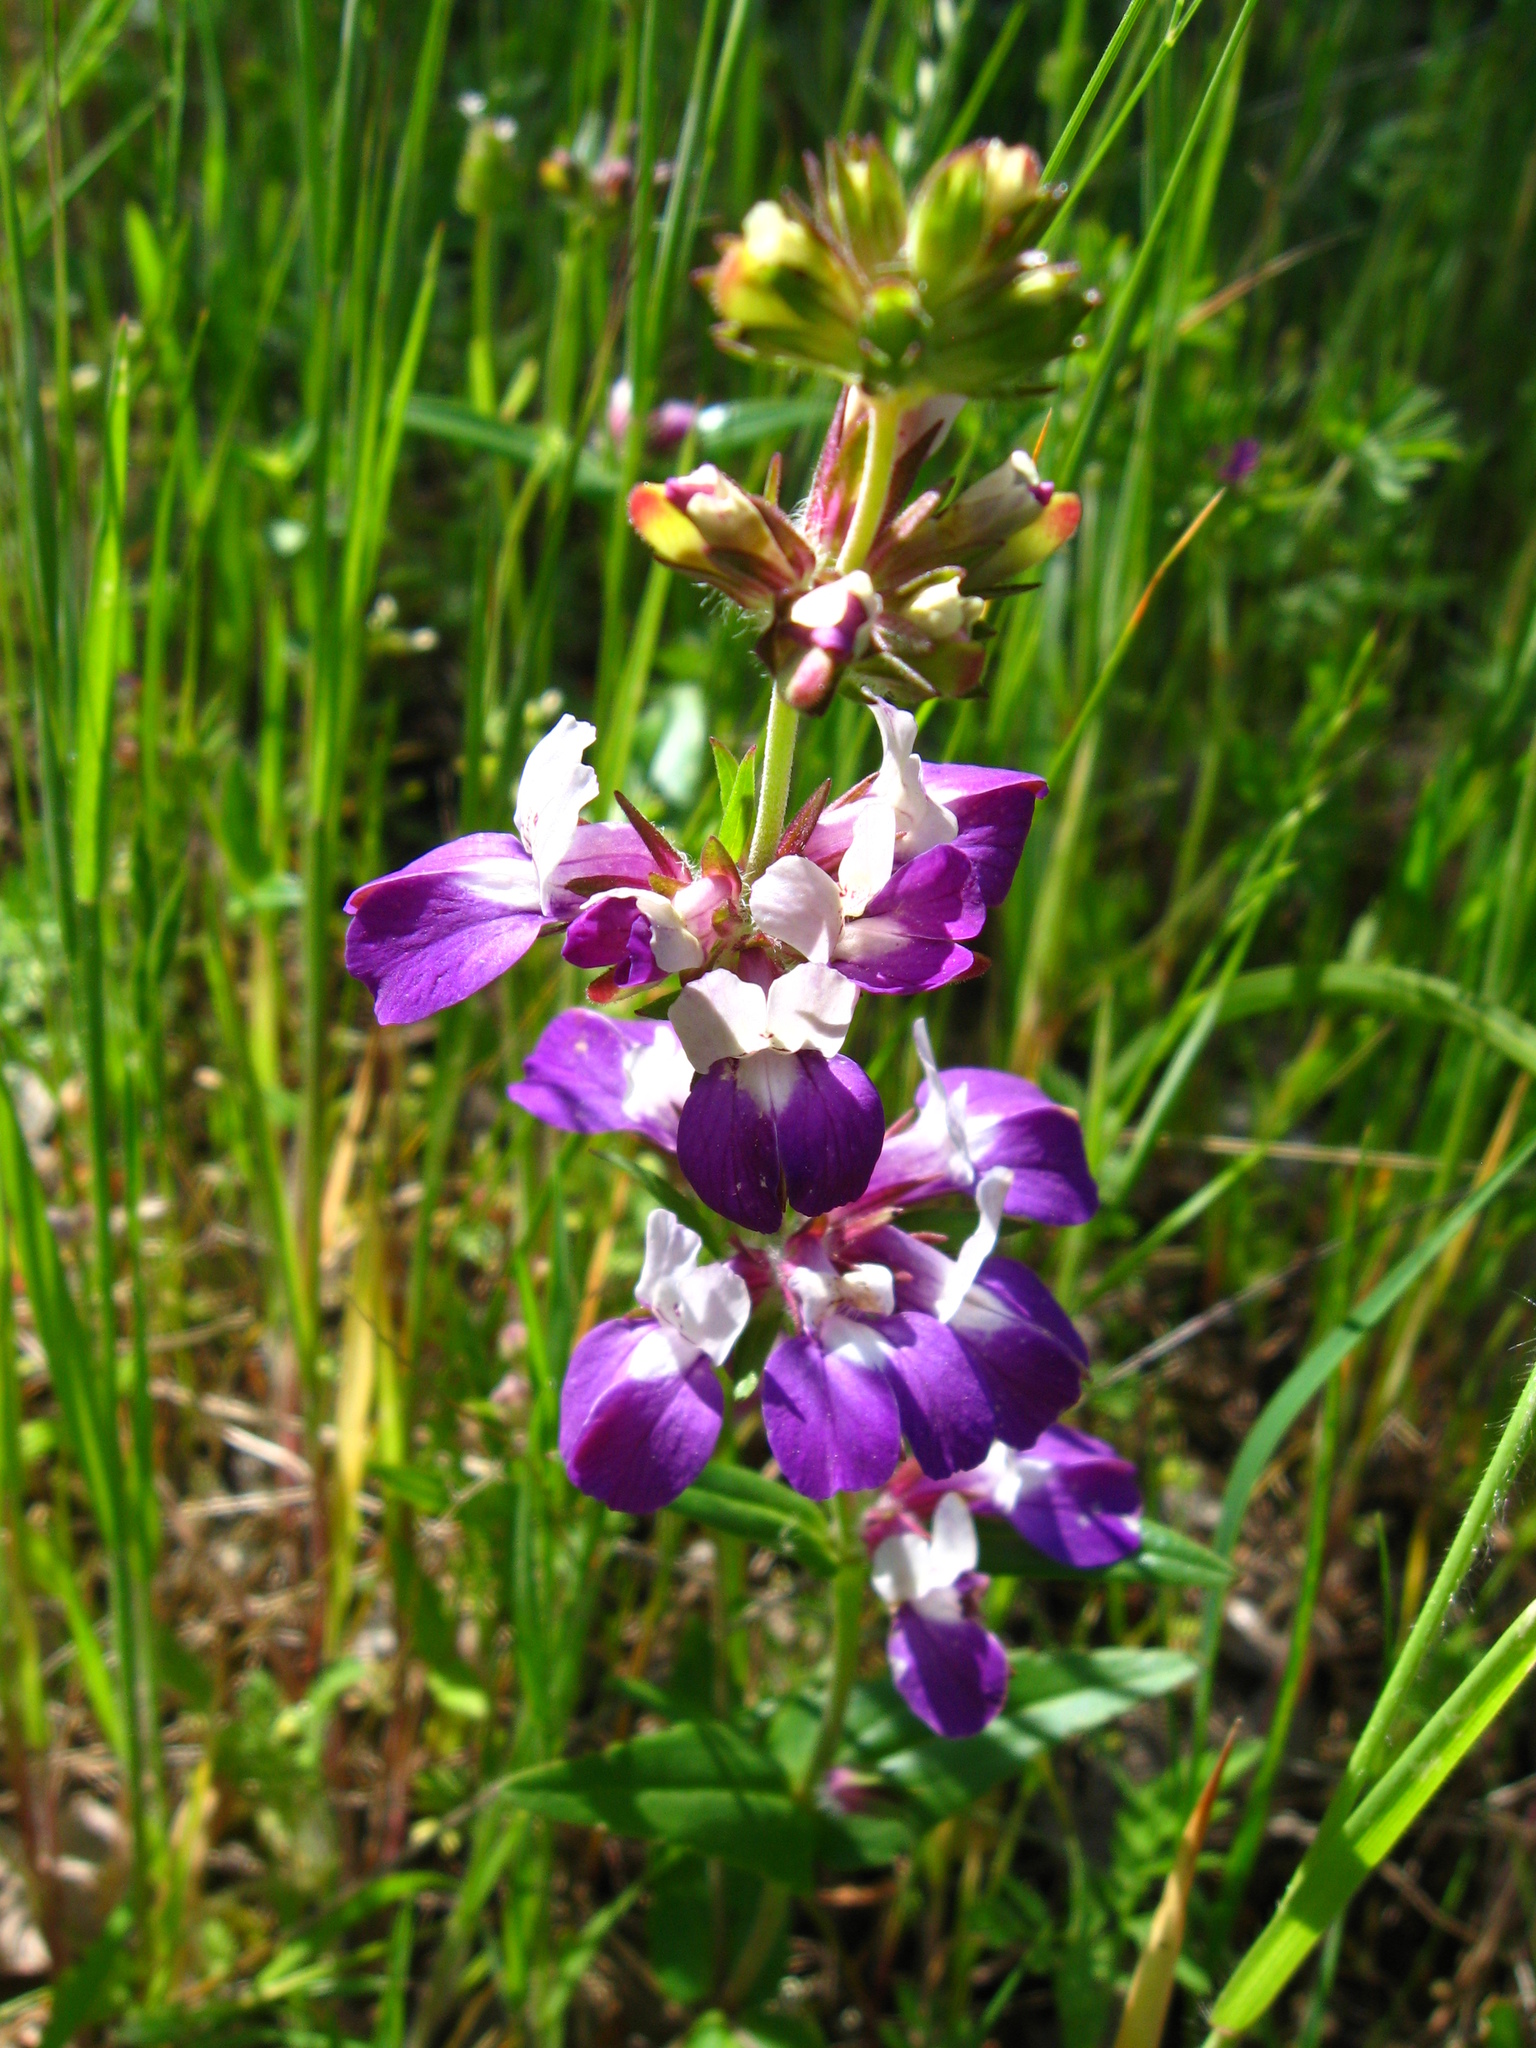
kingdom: Plantae
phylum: Tracheophyta
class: Magnoliopsida
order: Lamiales
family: Plantaginaceae
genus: Collinsia
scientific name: Collinsia heterophylla
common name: Chinese-houses
